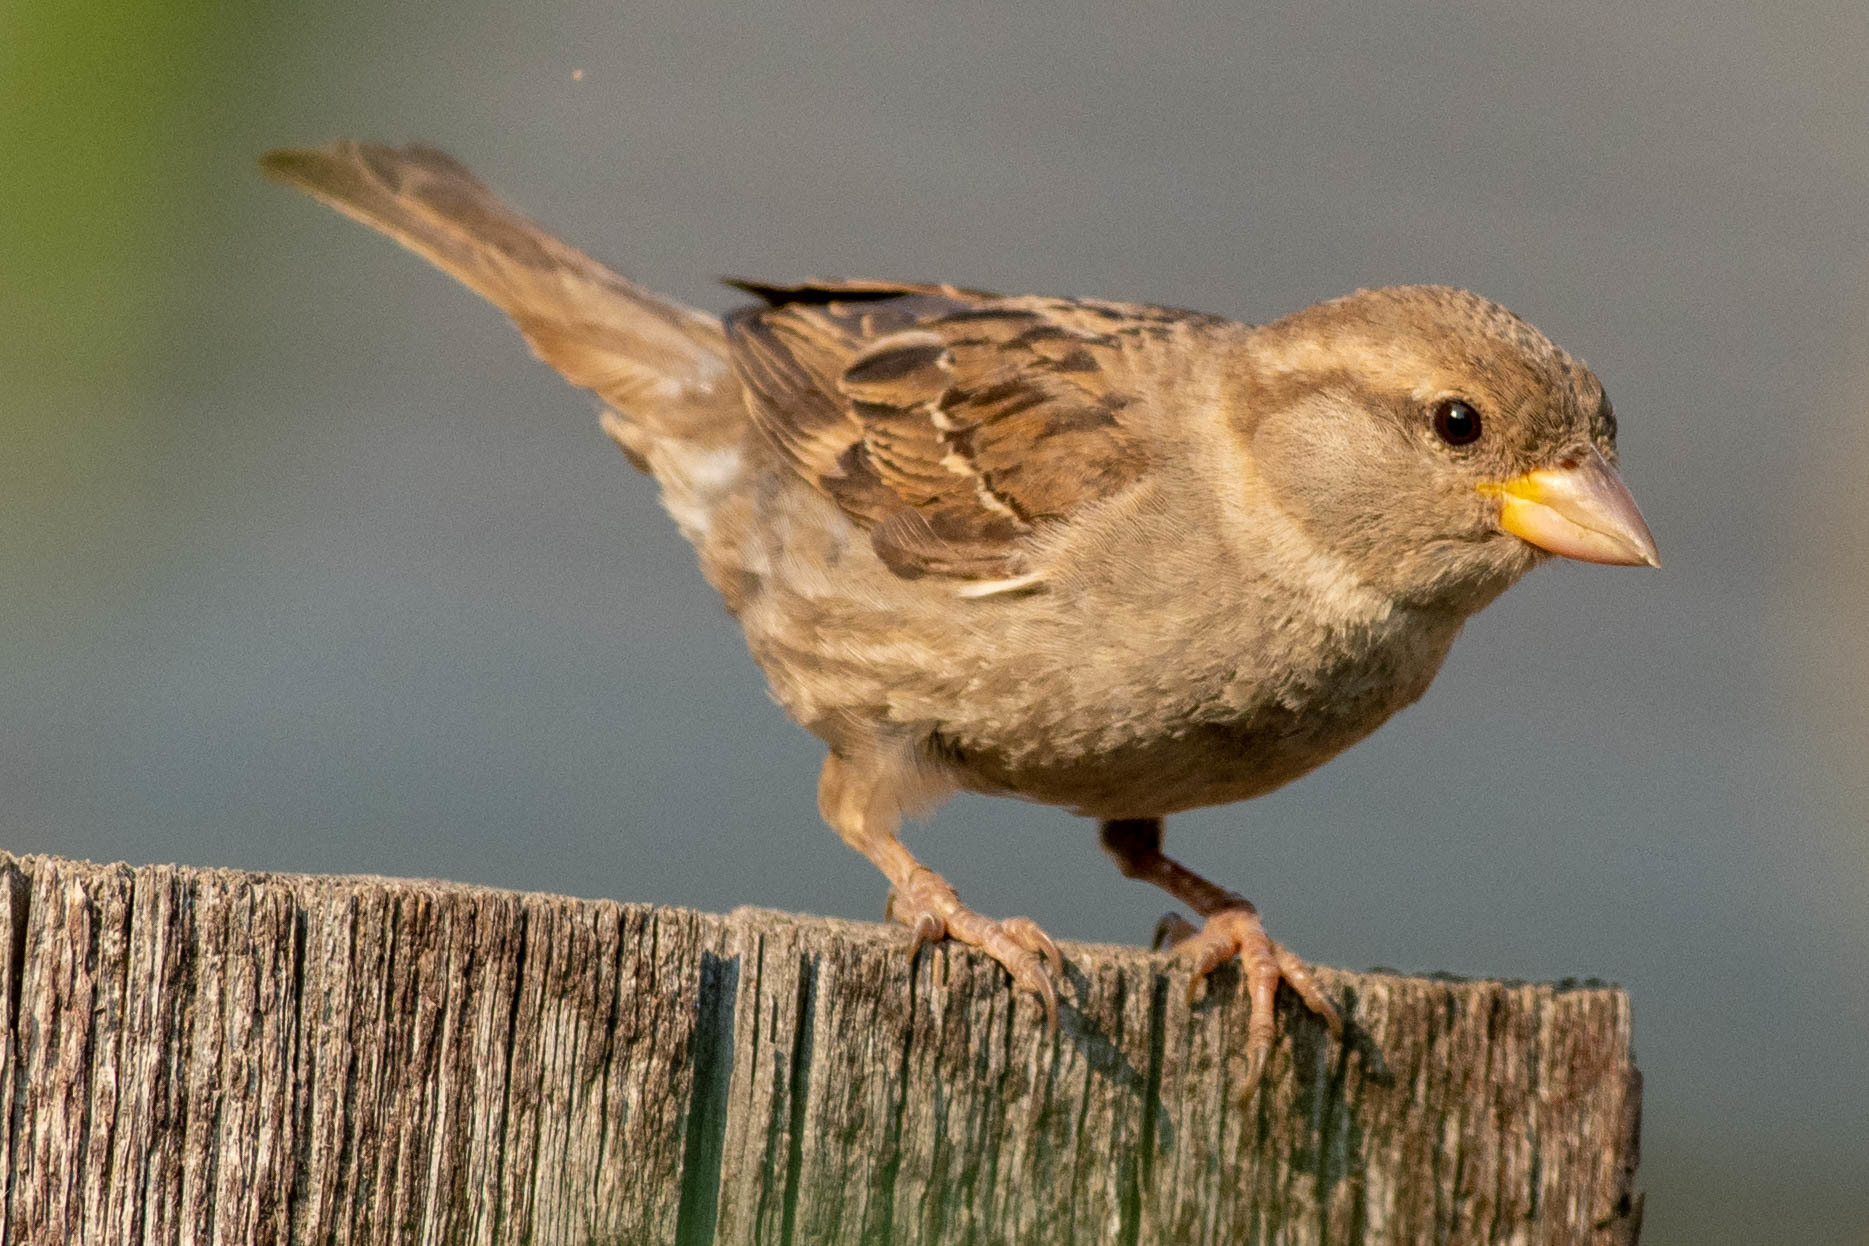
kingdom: Animalia
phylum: Chordata
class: Aves
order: Passeriformes
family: Passeridae
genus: Passer
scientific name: Passer domesticus
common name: House sparrow
